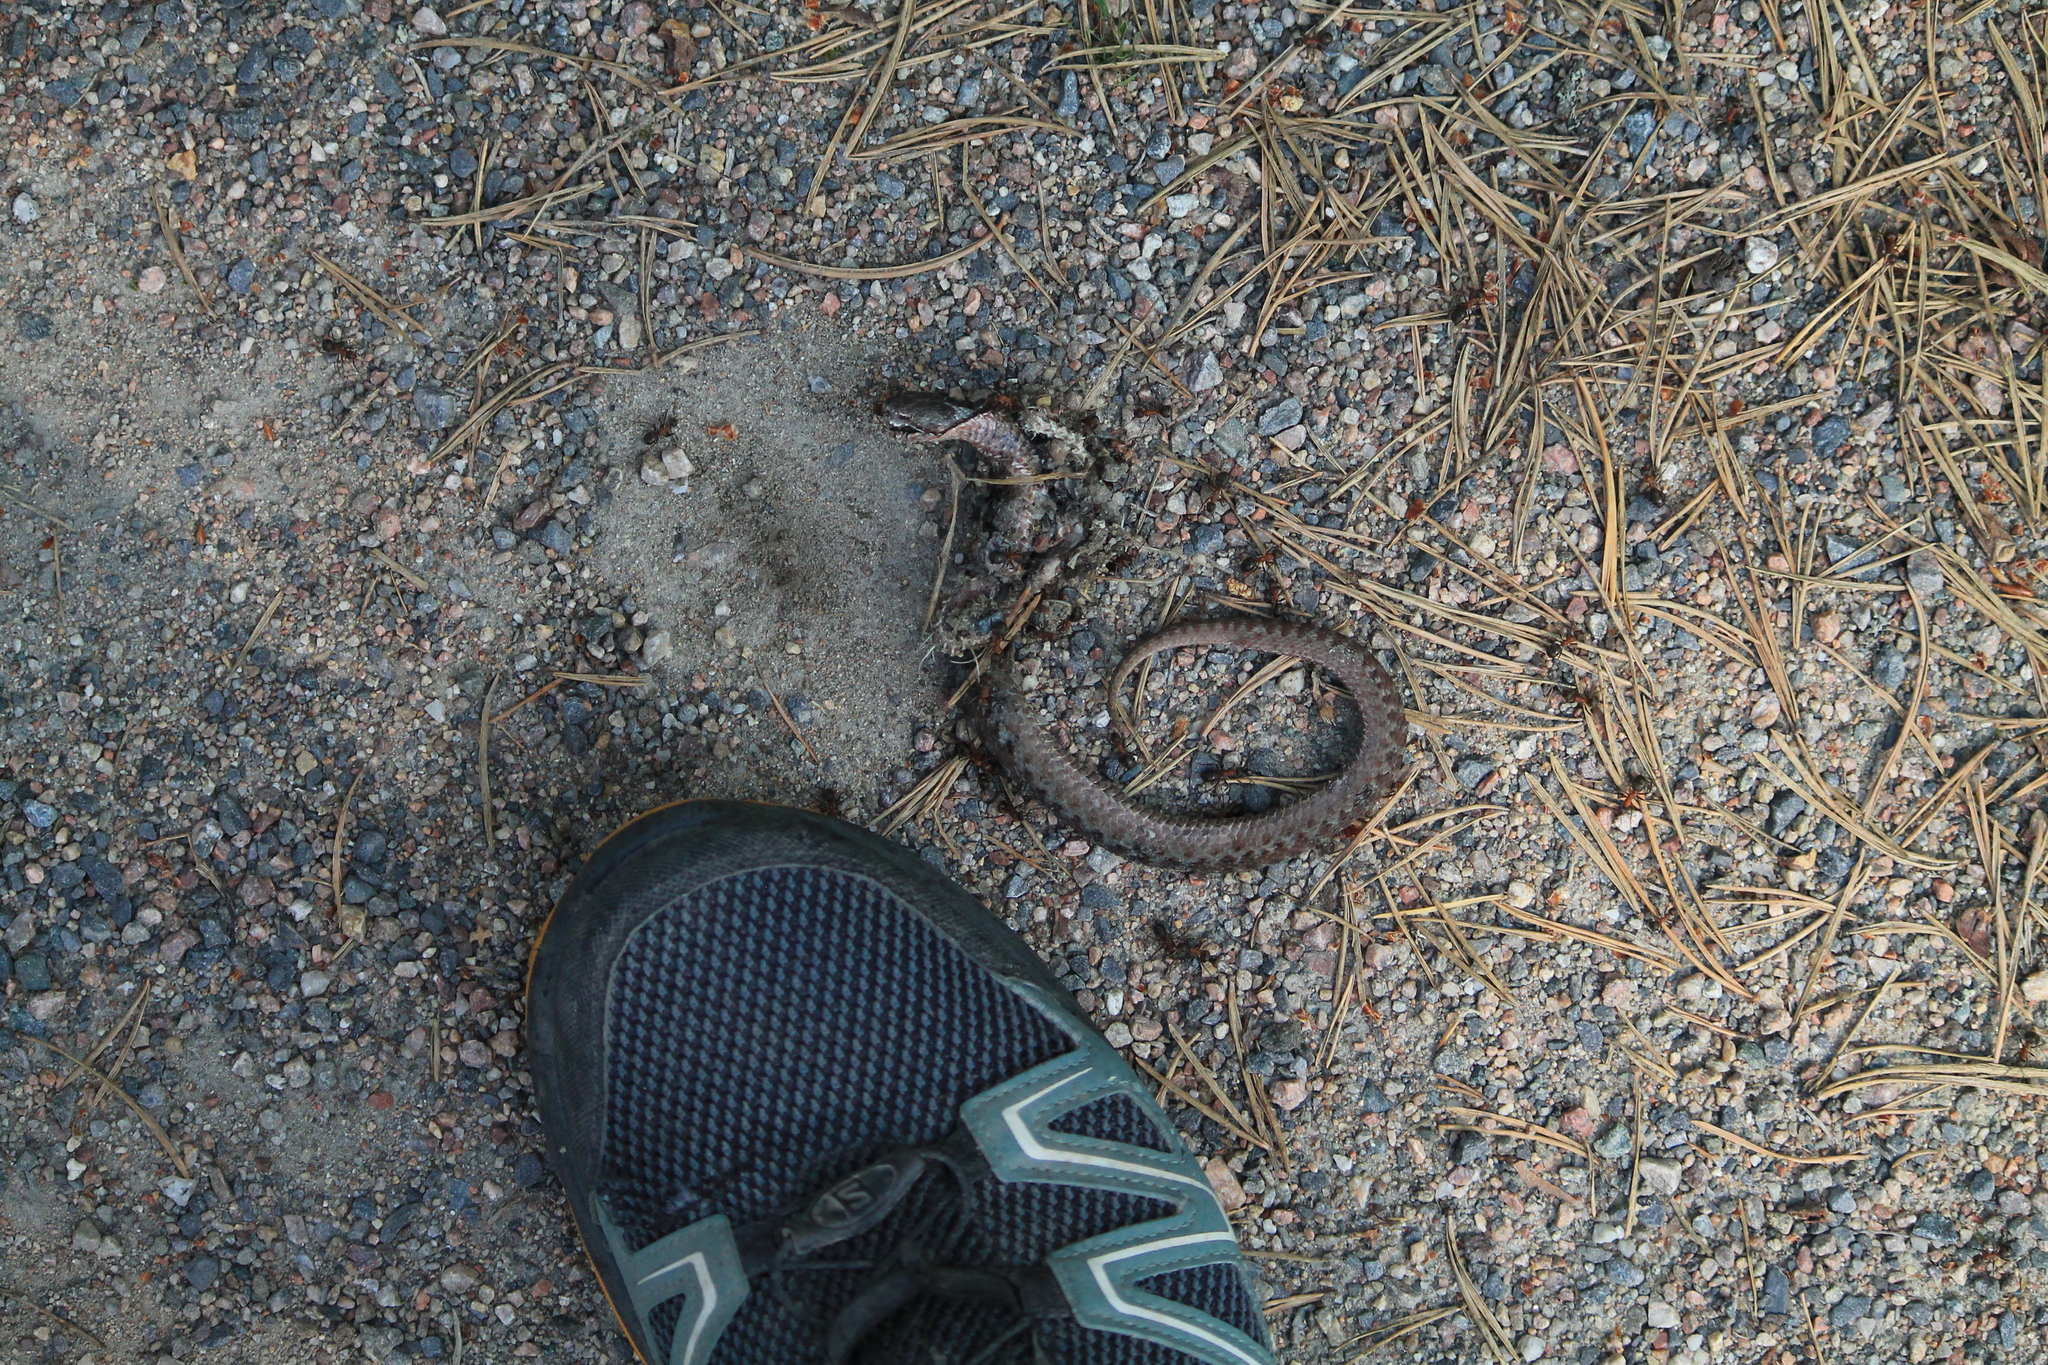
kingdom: Animalia
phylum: Chordata
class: Squamata
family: Viperidae
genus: Vipera
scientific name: Vipera berus
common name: Adder
